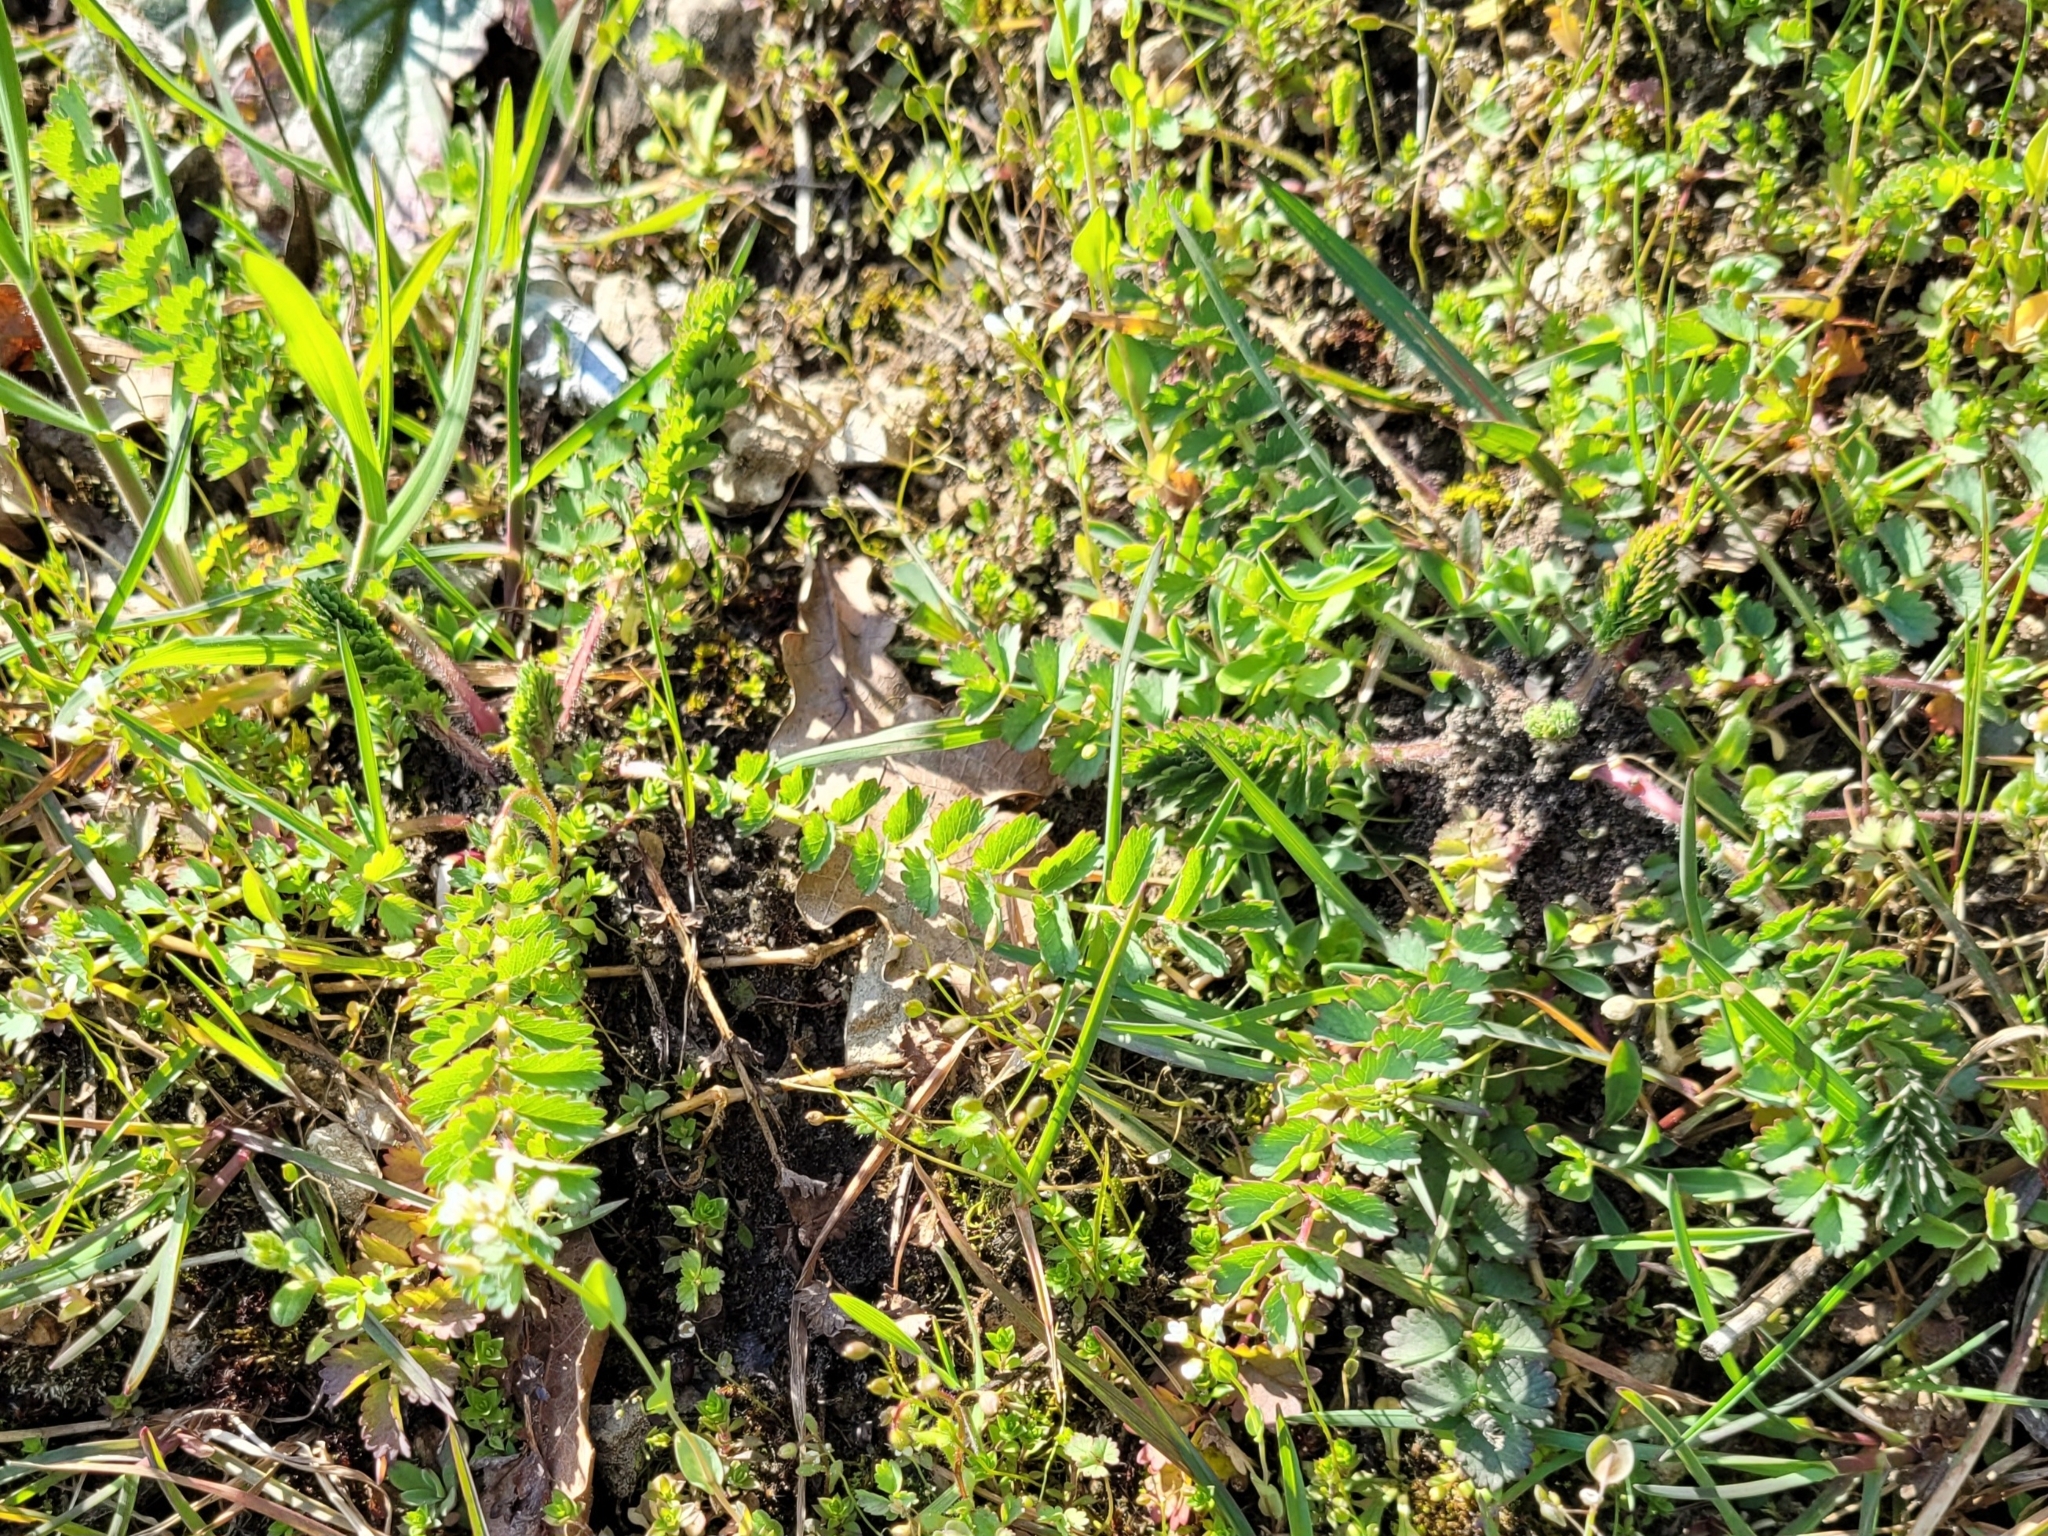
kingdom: Plantae
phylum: Tracheophyta
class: Magnoliopsida
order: Rosales
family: Rosaceae
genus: Poterium
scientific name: Poterium sanguisorba
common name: Salad burnet
